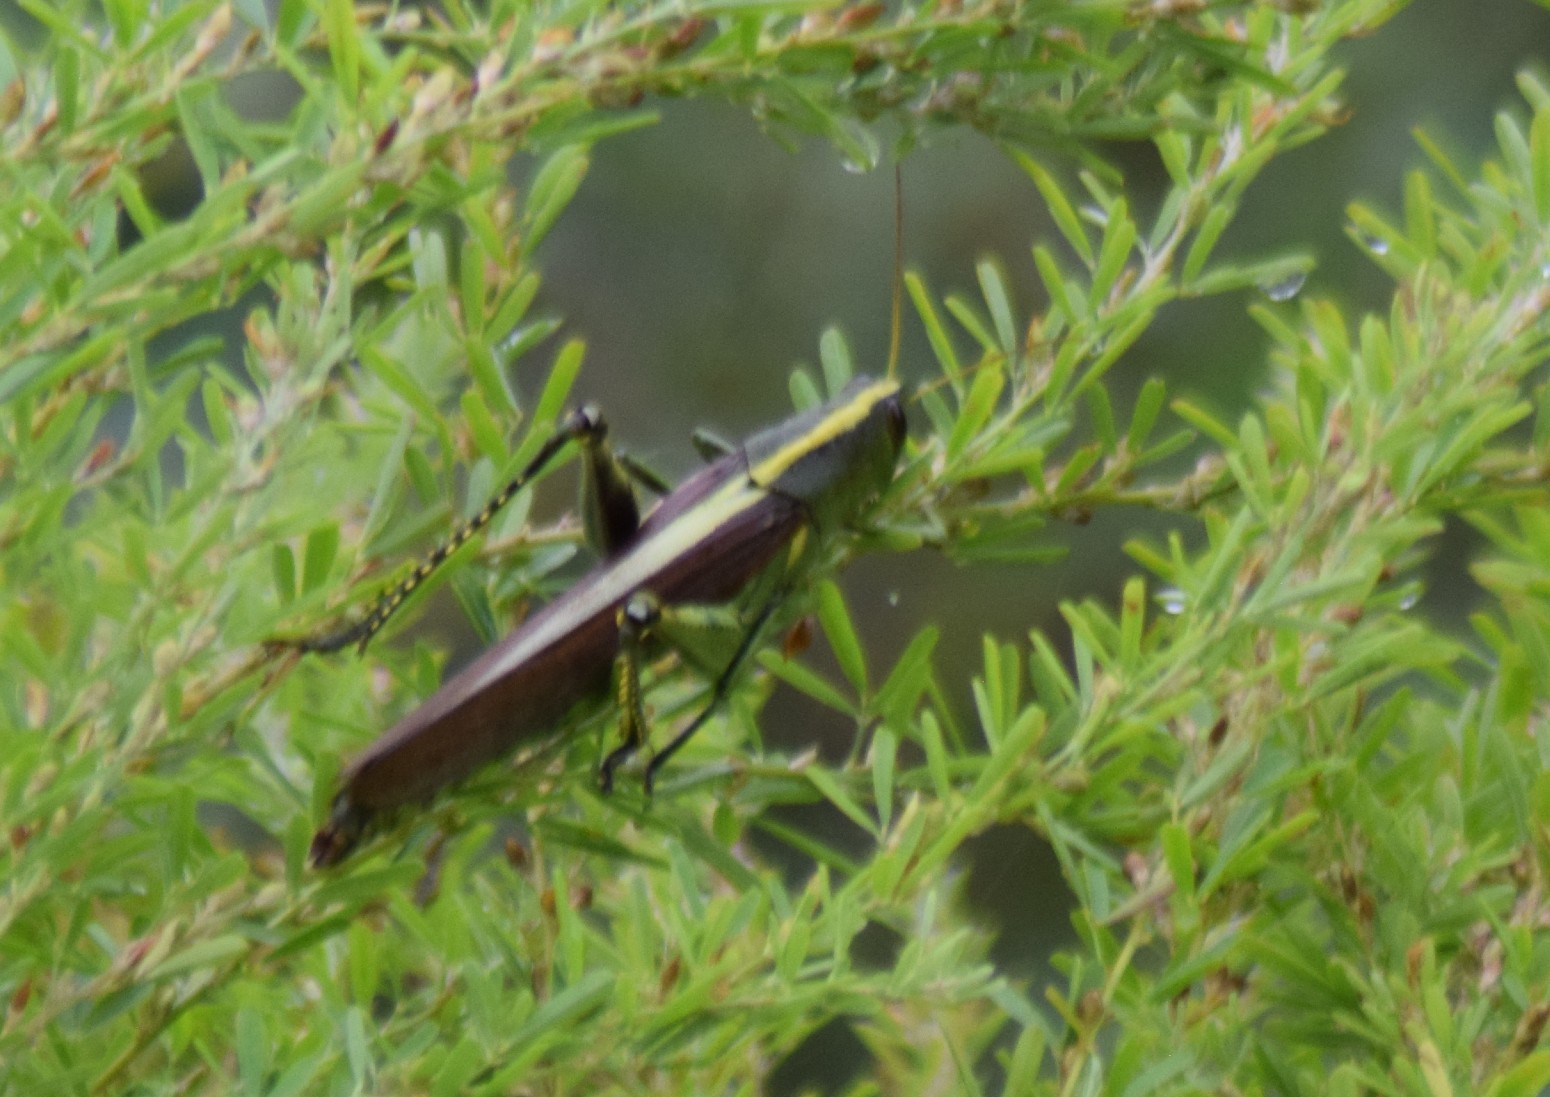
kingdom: Animalia
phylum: Arthropoda
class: Insecta
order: Orthoptera
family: Acrididae
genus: Schistocerca
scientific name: Schistocerca obscura
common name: Obscure bird grasshopper
